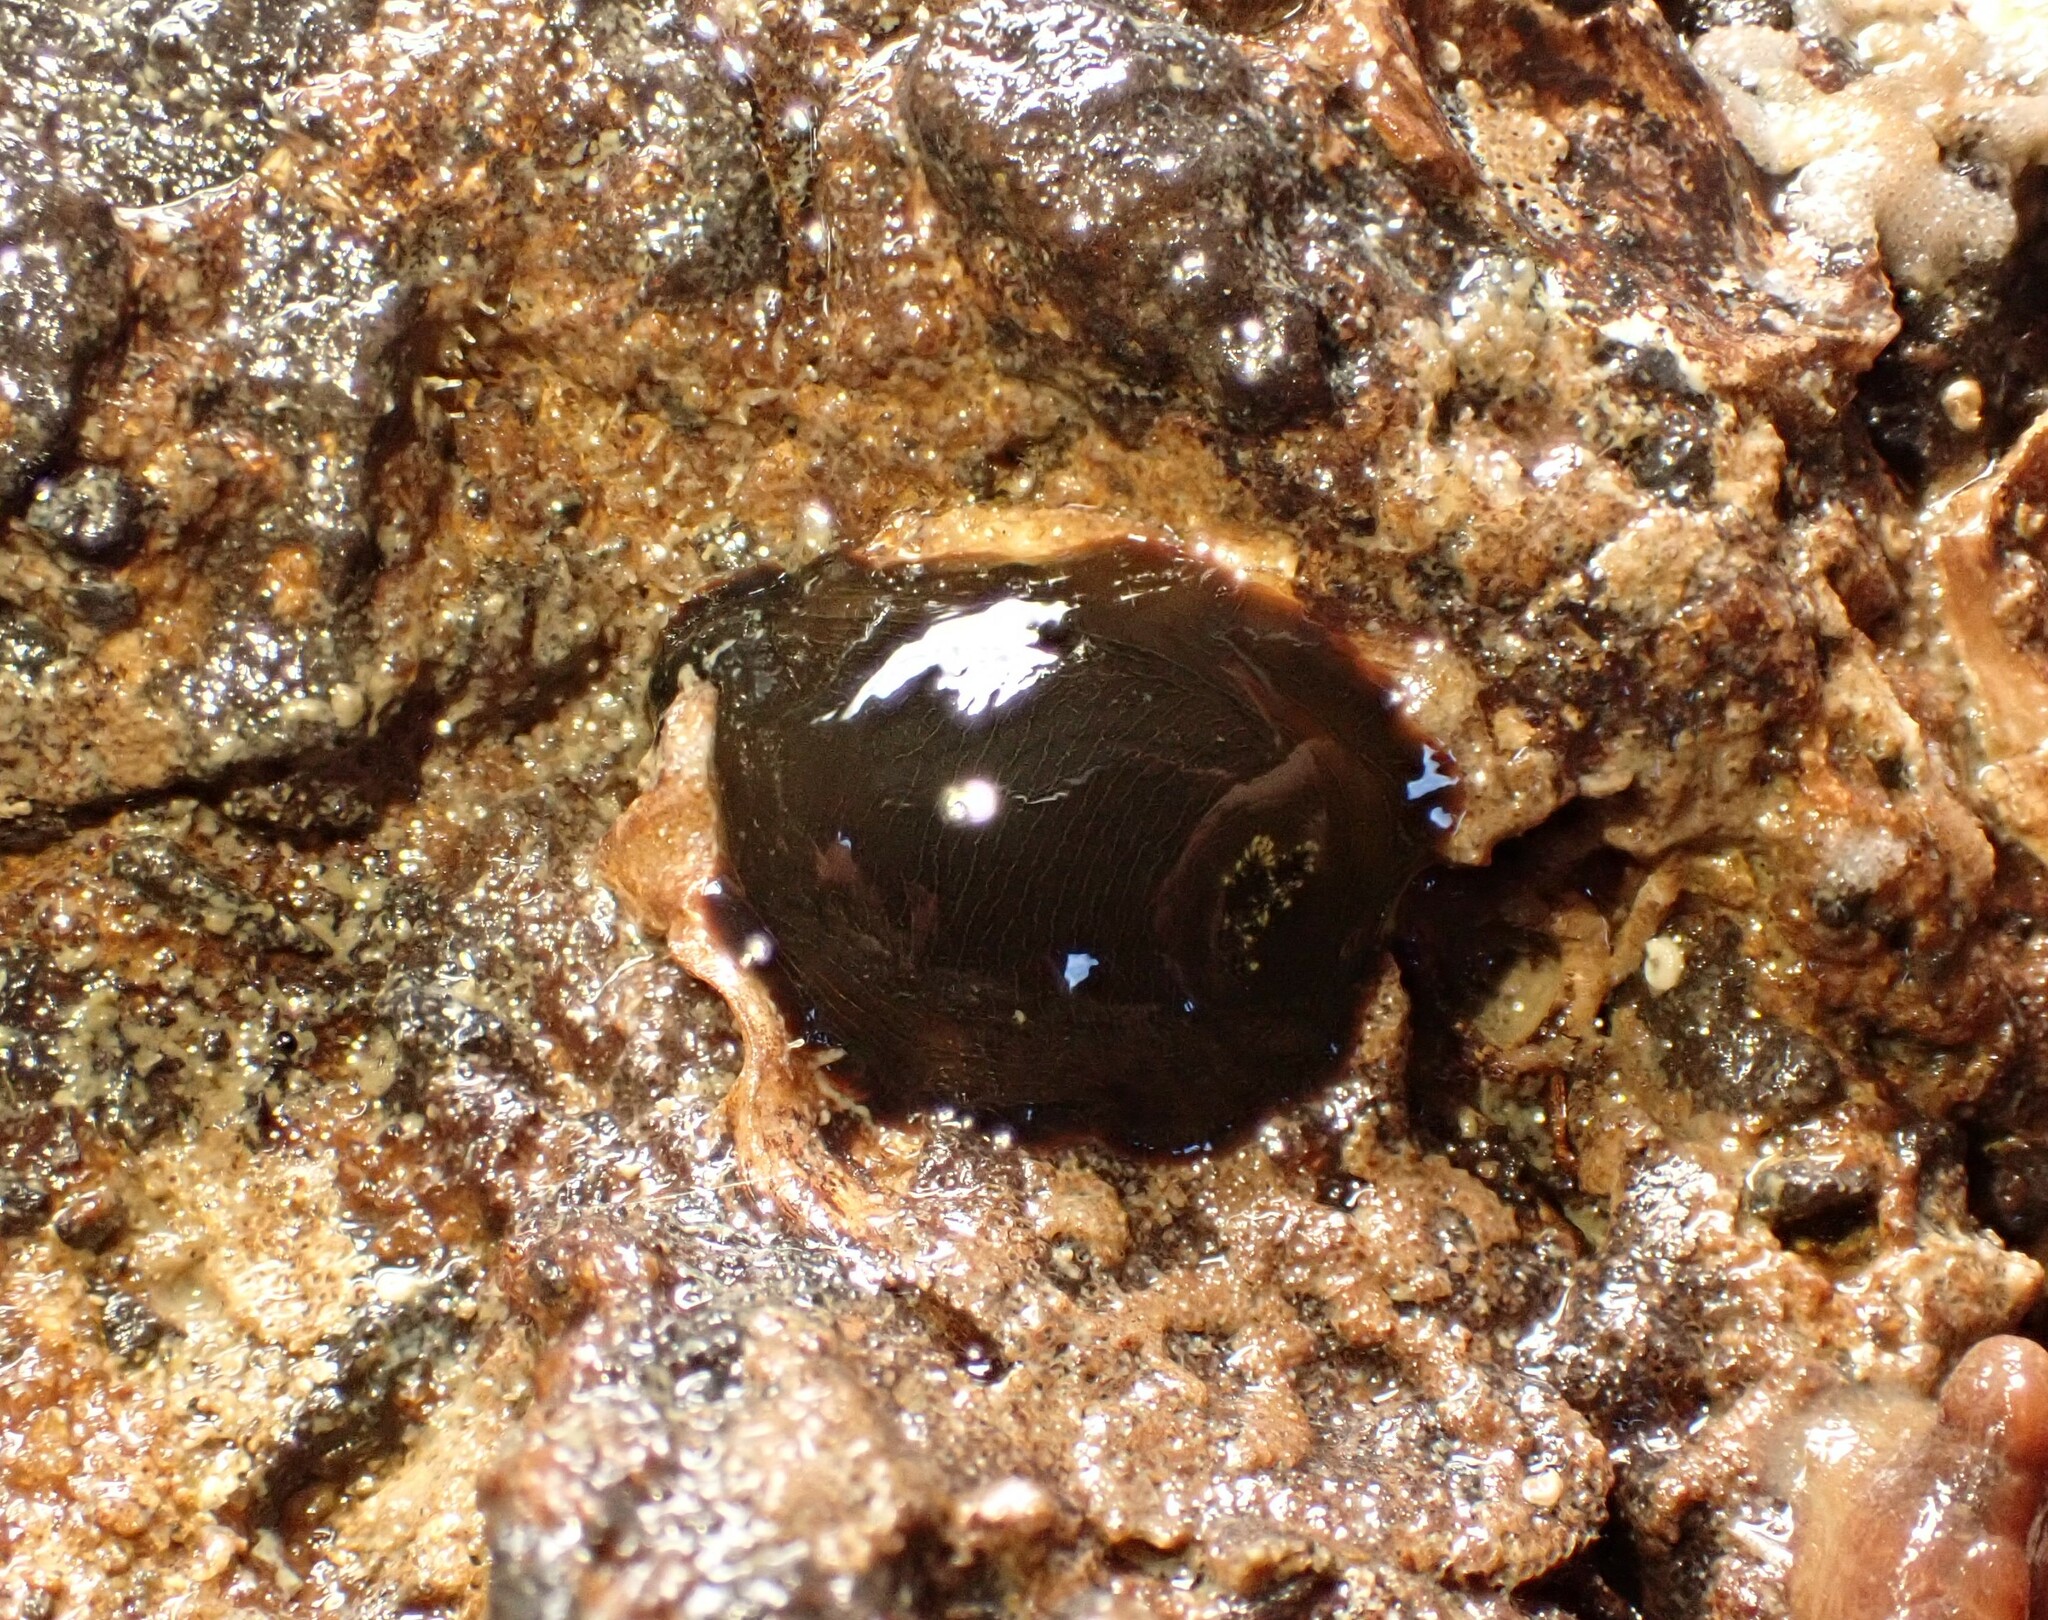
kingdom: Animalia
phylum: Mollusca
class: Gastropoda
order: Nudibranchia
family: Dendrodorididae
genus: Dendrodoris
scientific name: Dendrodoris nigra
